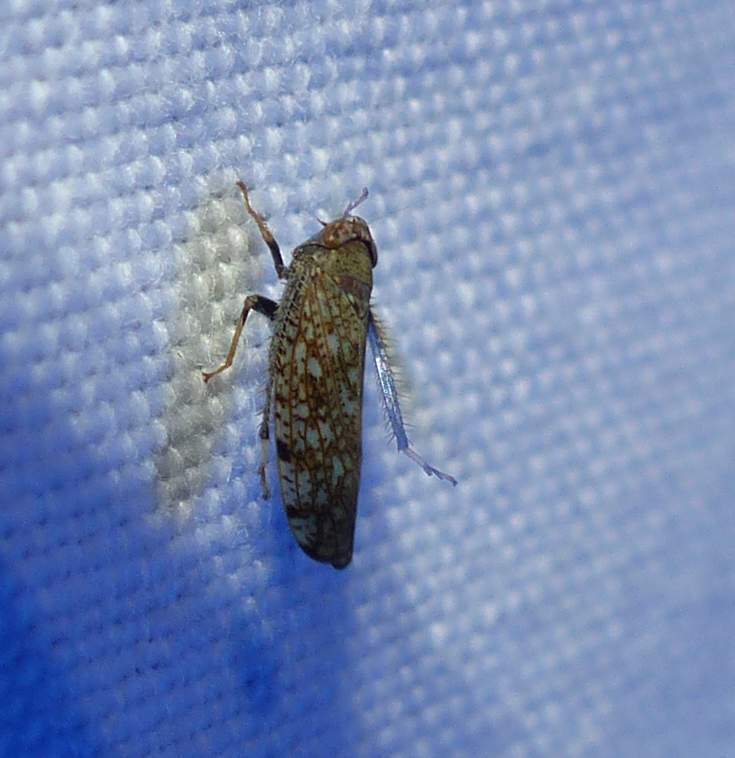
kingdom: Animalia
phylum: Arthropoda
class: Insecta
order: Hemiptera
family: Cicadellidae
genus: Orientus
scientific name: Orientus ishidae
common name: Japanese leafhopper
